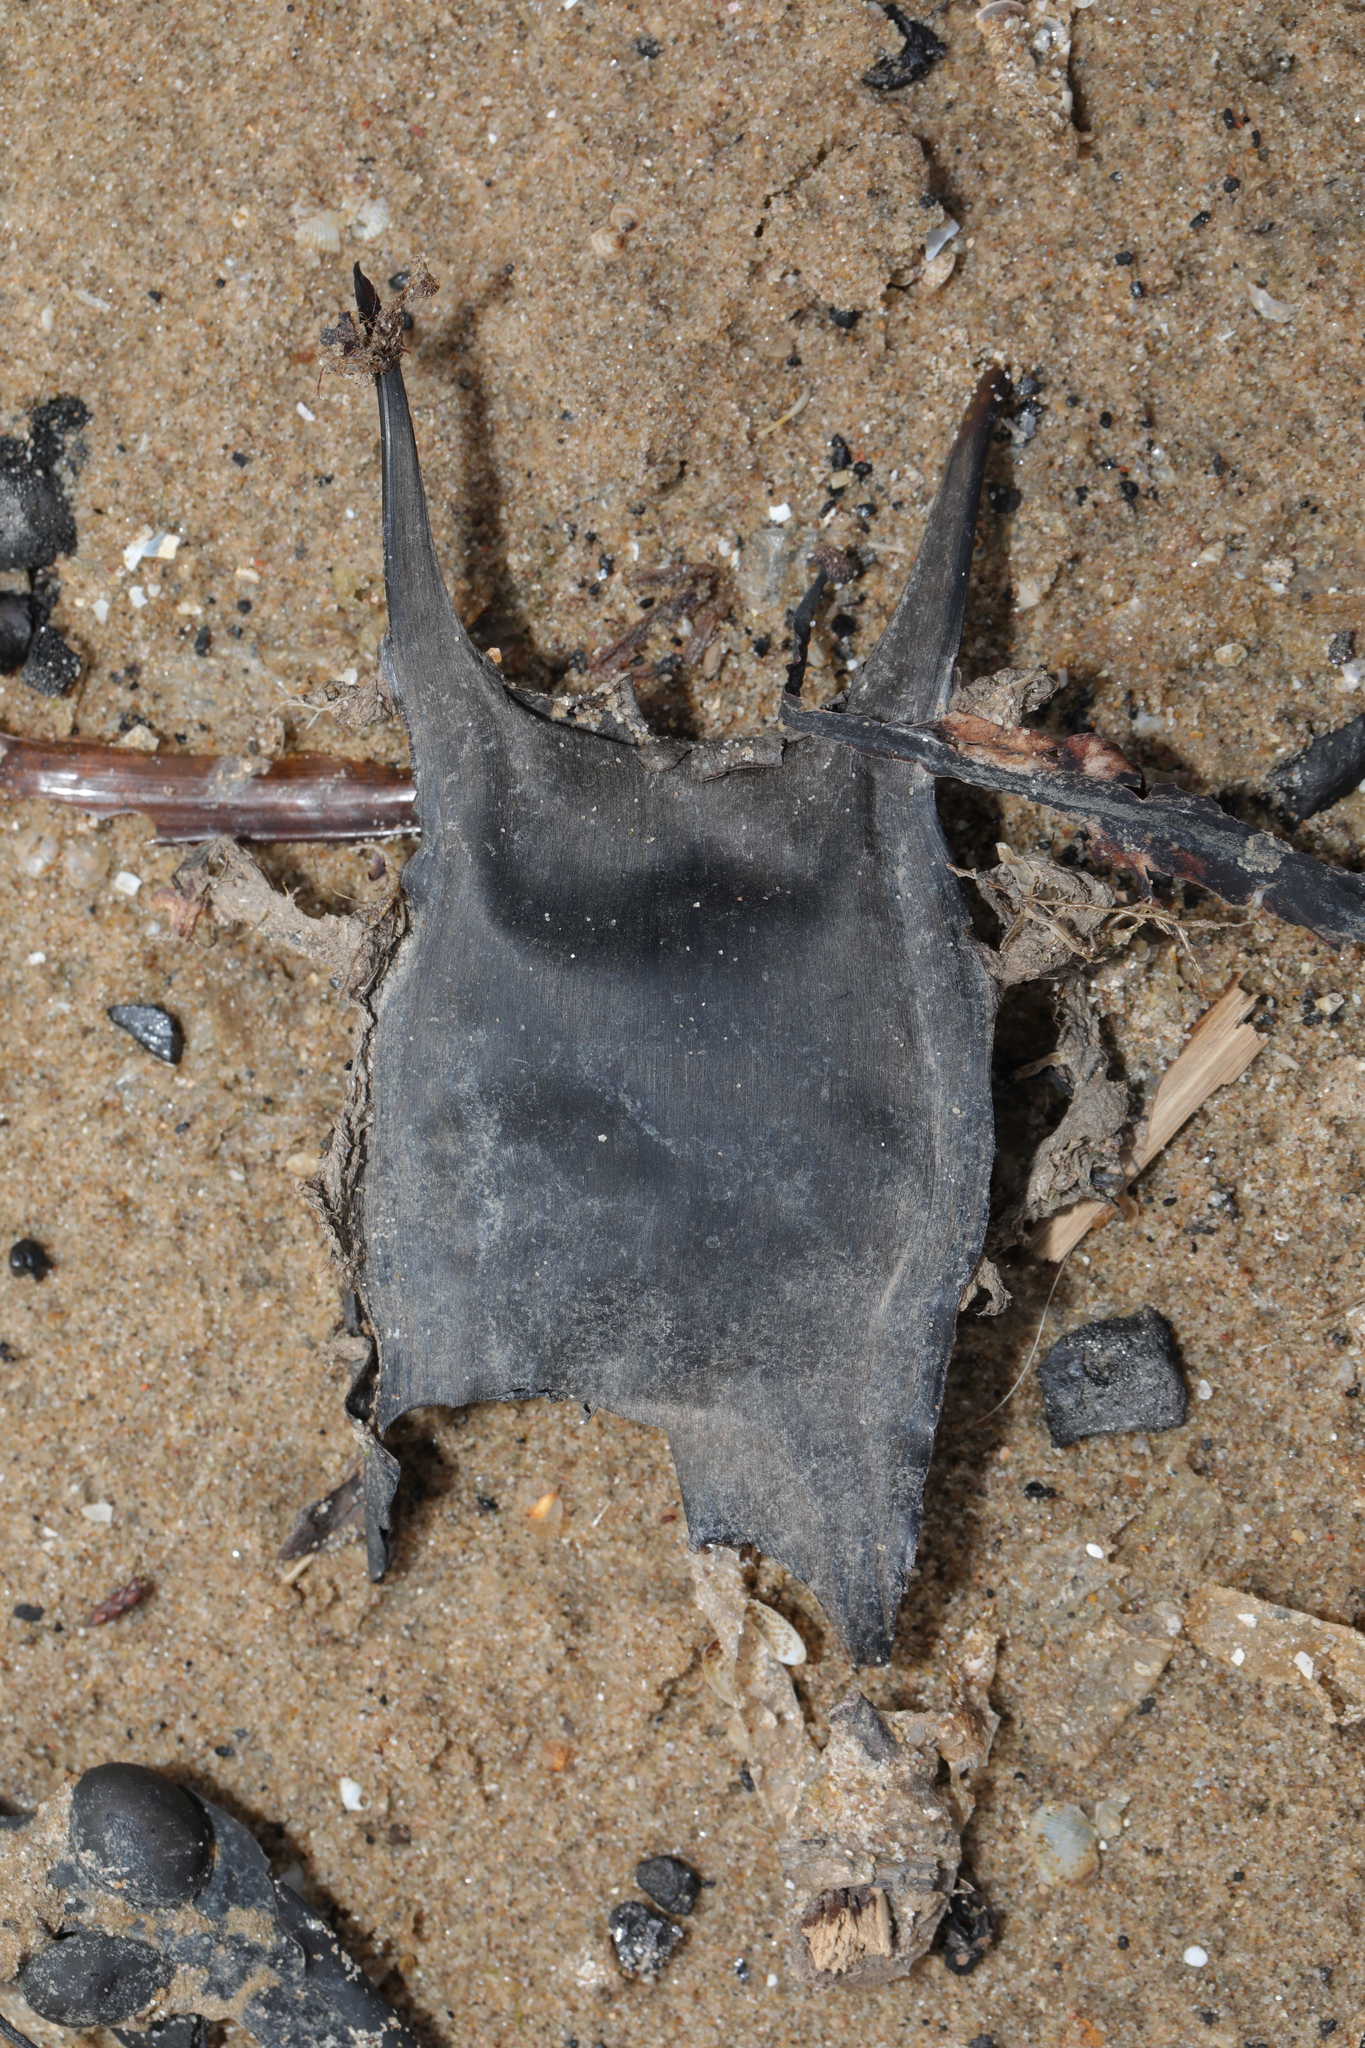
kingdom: Animalia
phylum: Chordata
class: Elasmobranchii
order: Rajiformes
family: Rajidae
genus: Raja
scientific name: Raja clavata
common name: Thornback ray
